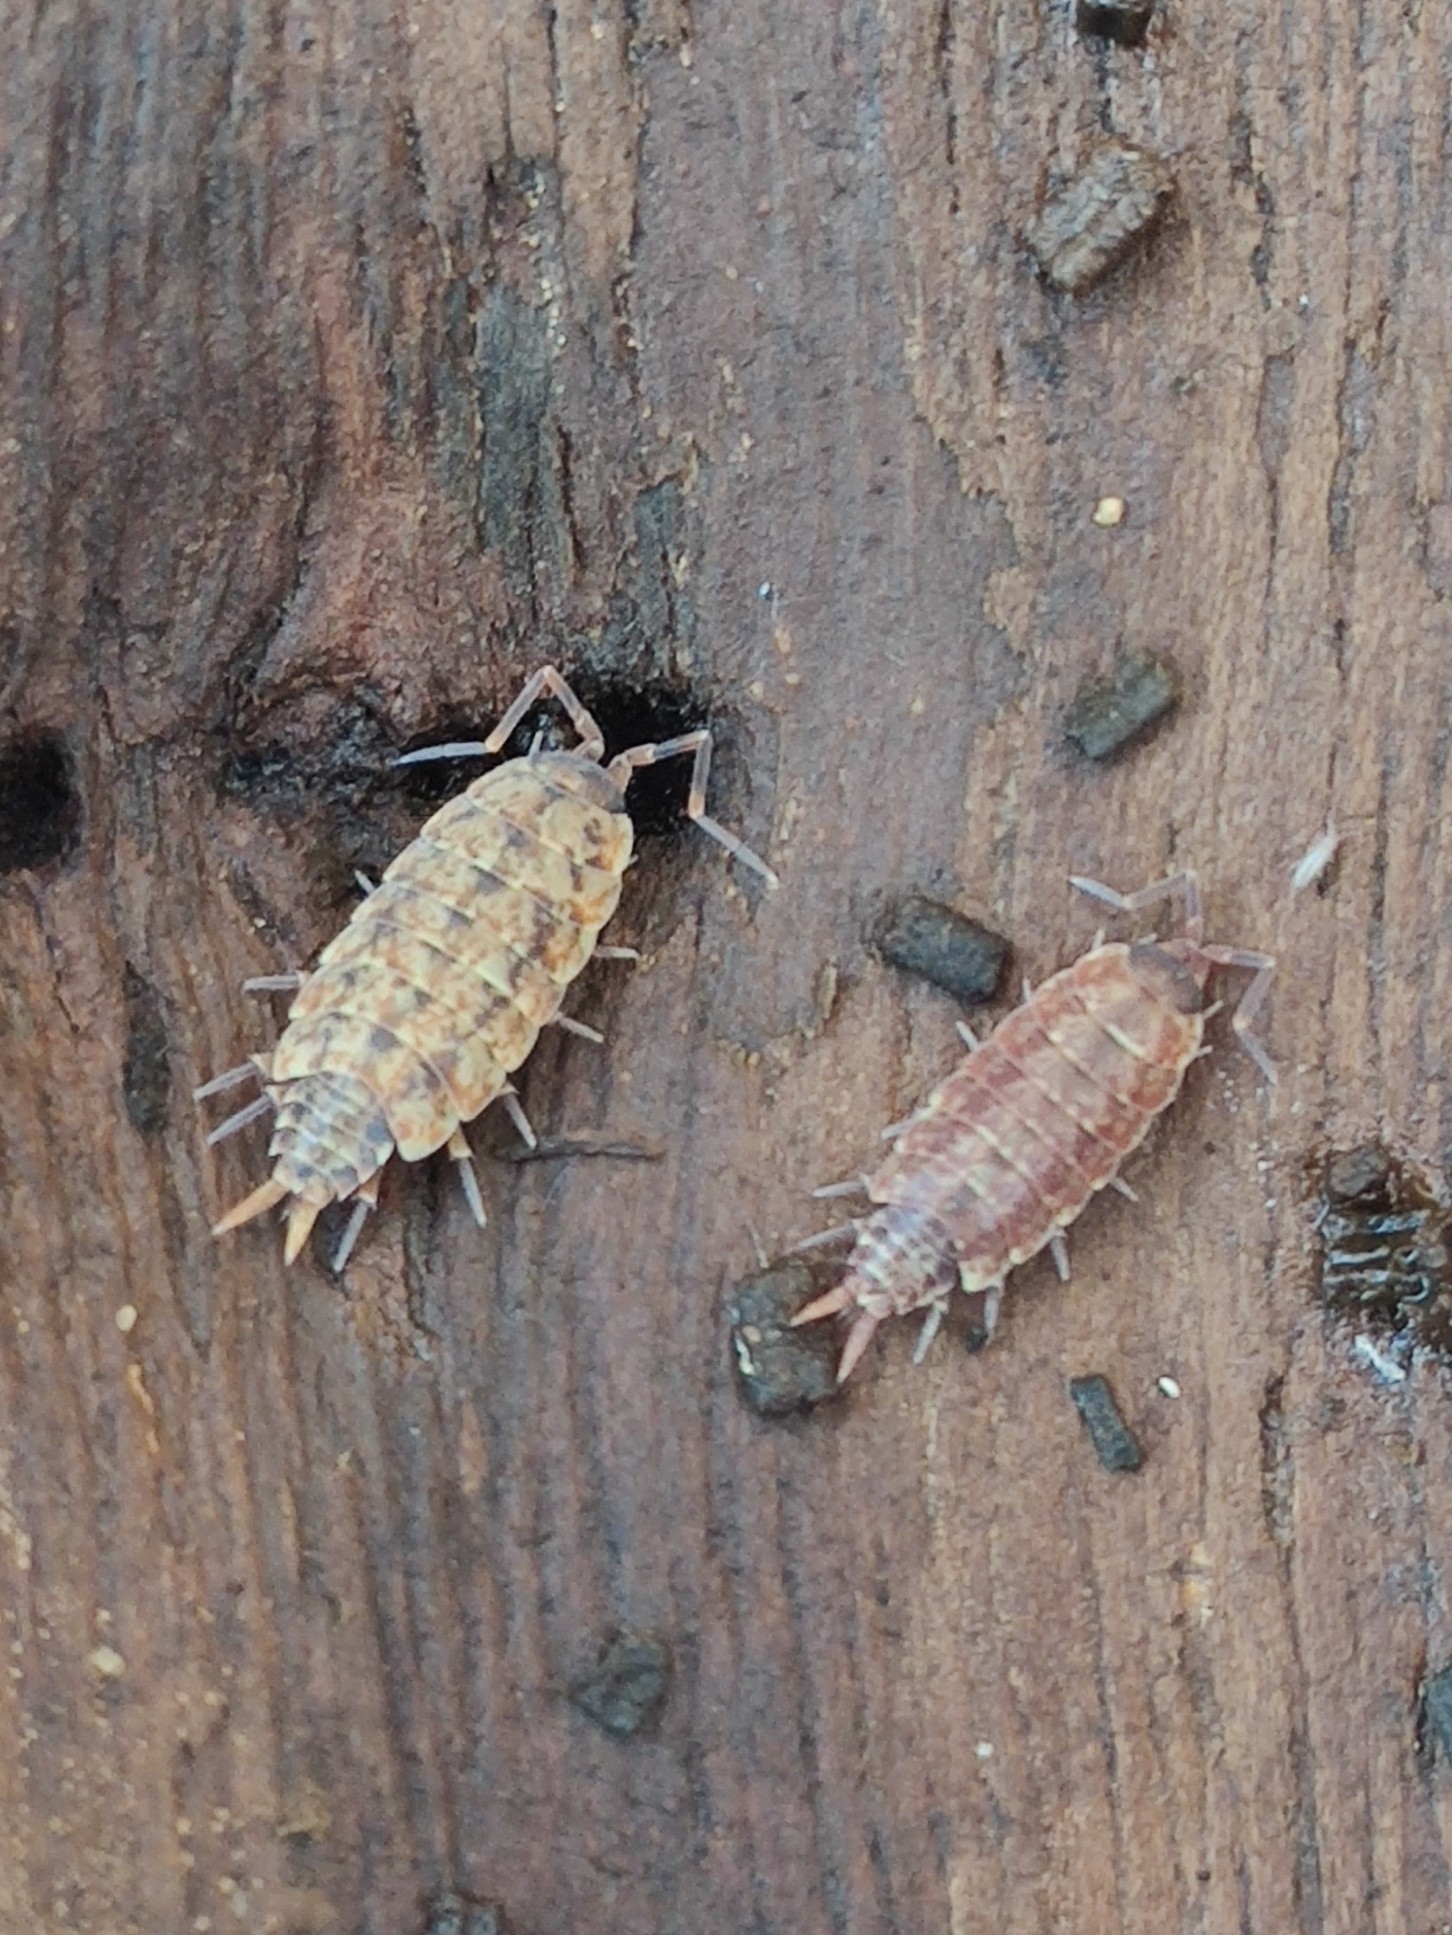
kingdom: Animalia
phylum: Arthropoda
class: Malacostraca
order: Isopoda
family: Porcellionidae
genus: Porcellionides
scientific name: Porcellionides cingendus
